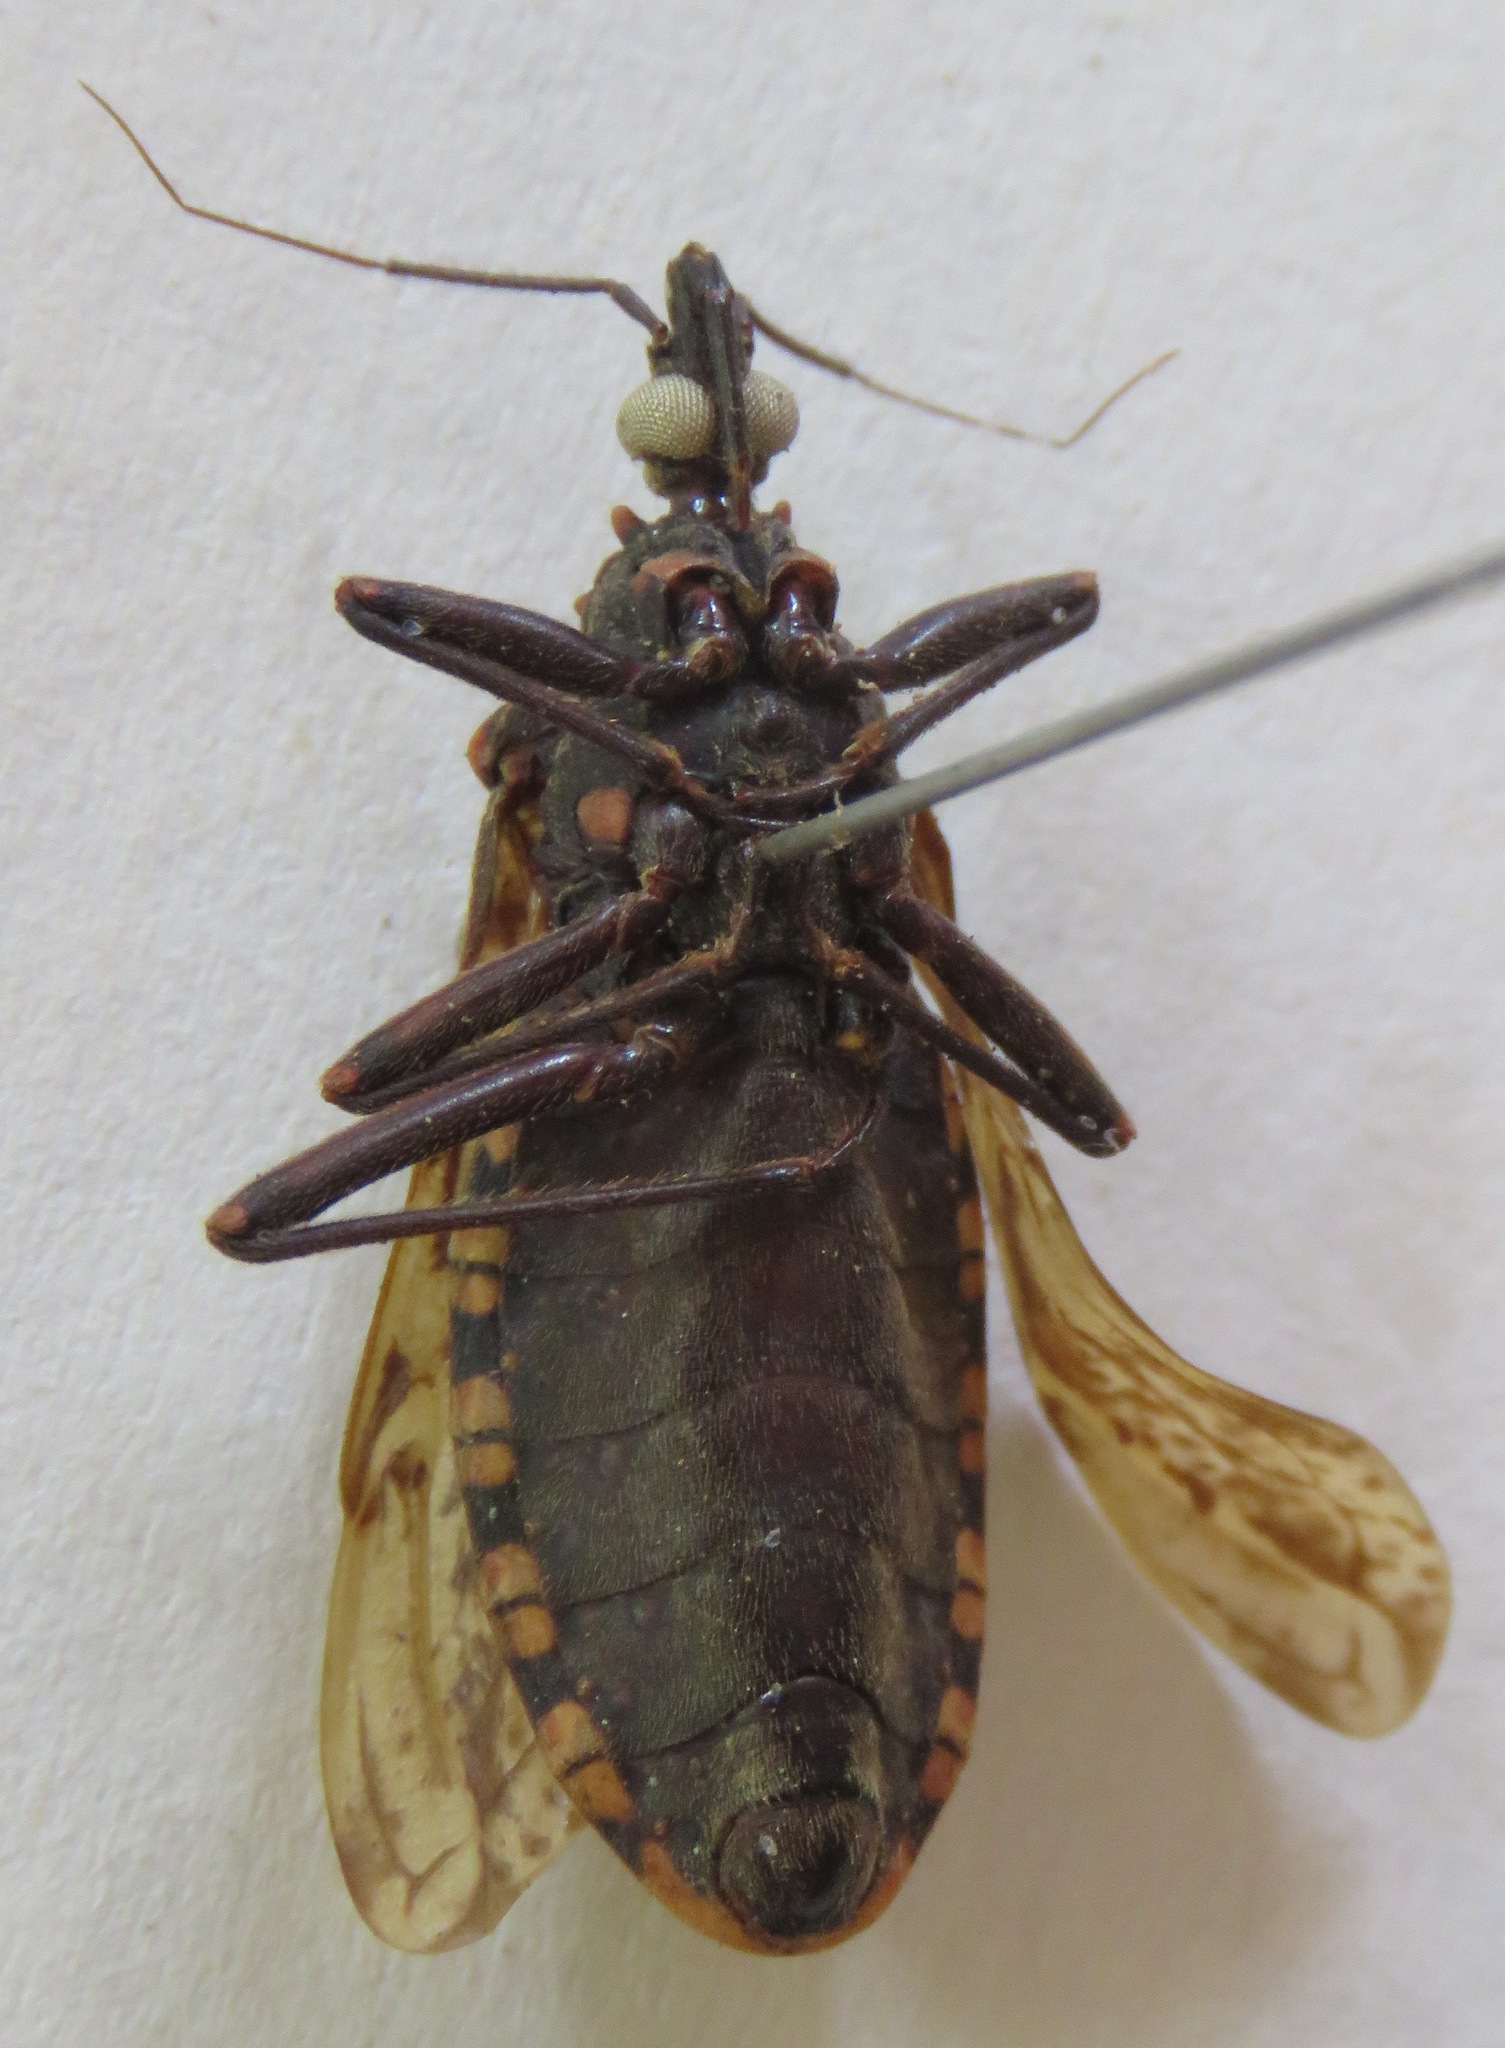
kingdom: Animalia
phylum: Arthropoda
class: Insecta
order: Hemiptera
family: Reduviidae
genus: Panstrongylus
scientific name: Panstrongylus rufotuberculatus
